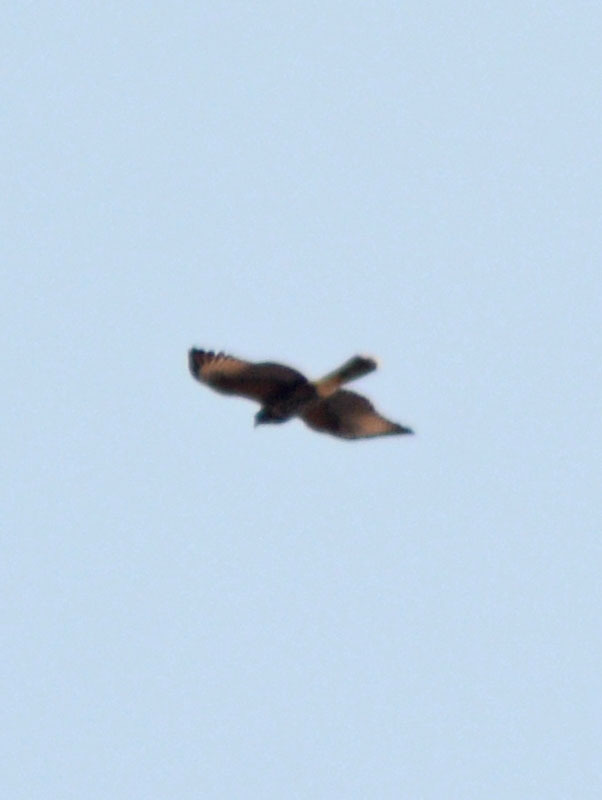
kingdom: Animalia
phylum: Chordata
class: Aves
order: Accipitriformes
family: Accipitridae
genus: Parabuteo
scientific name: Parabuteo unicinctus
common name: Harris's hawk
